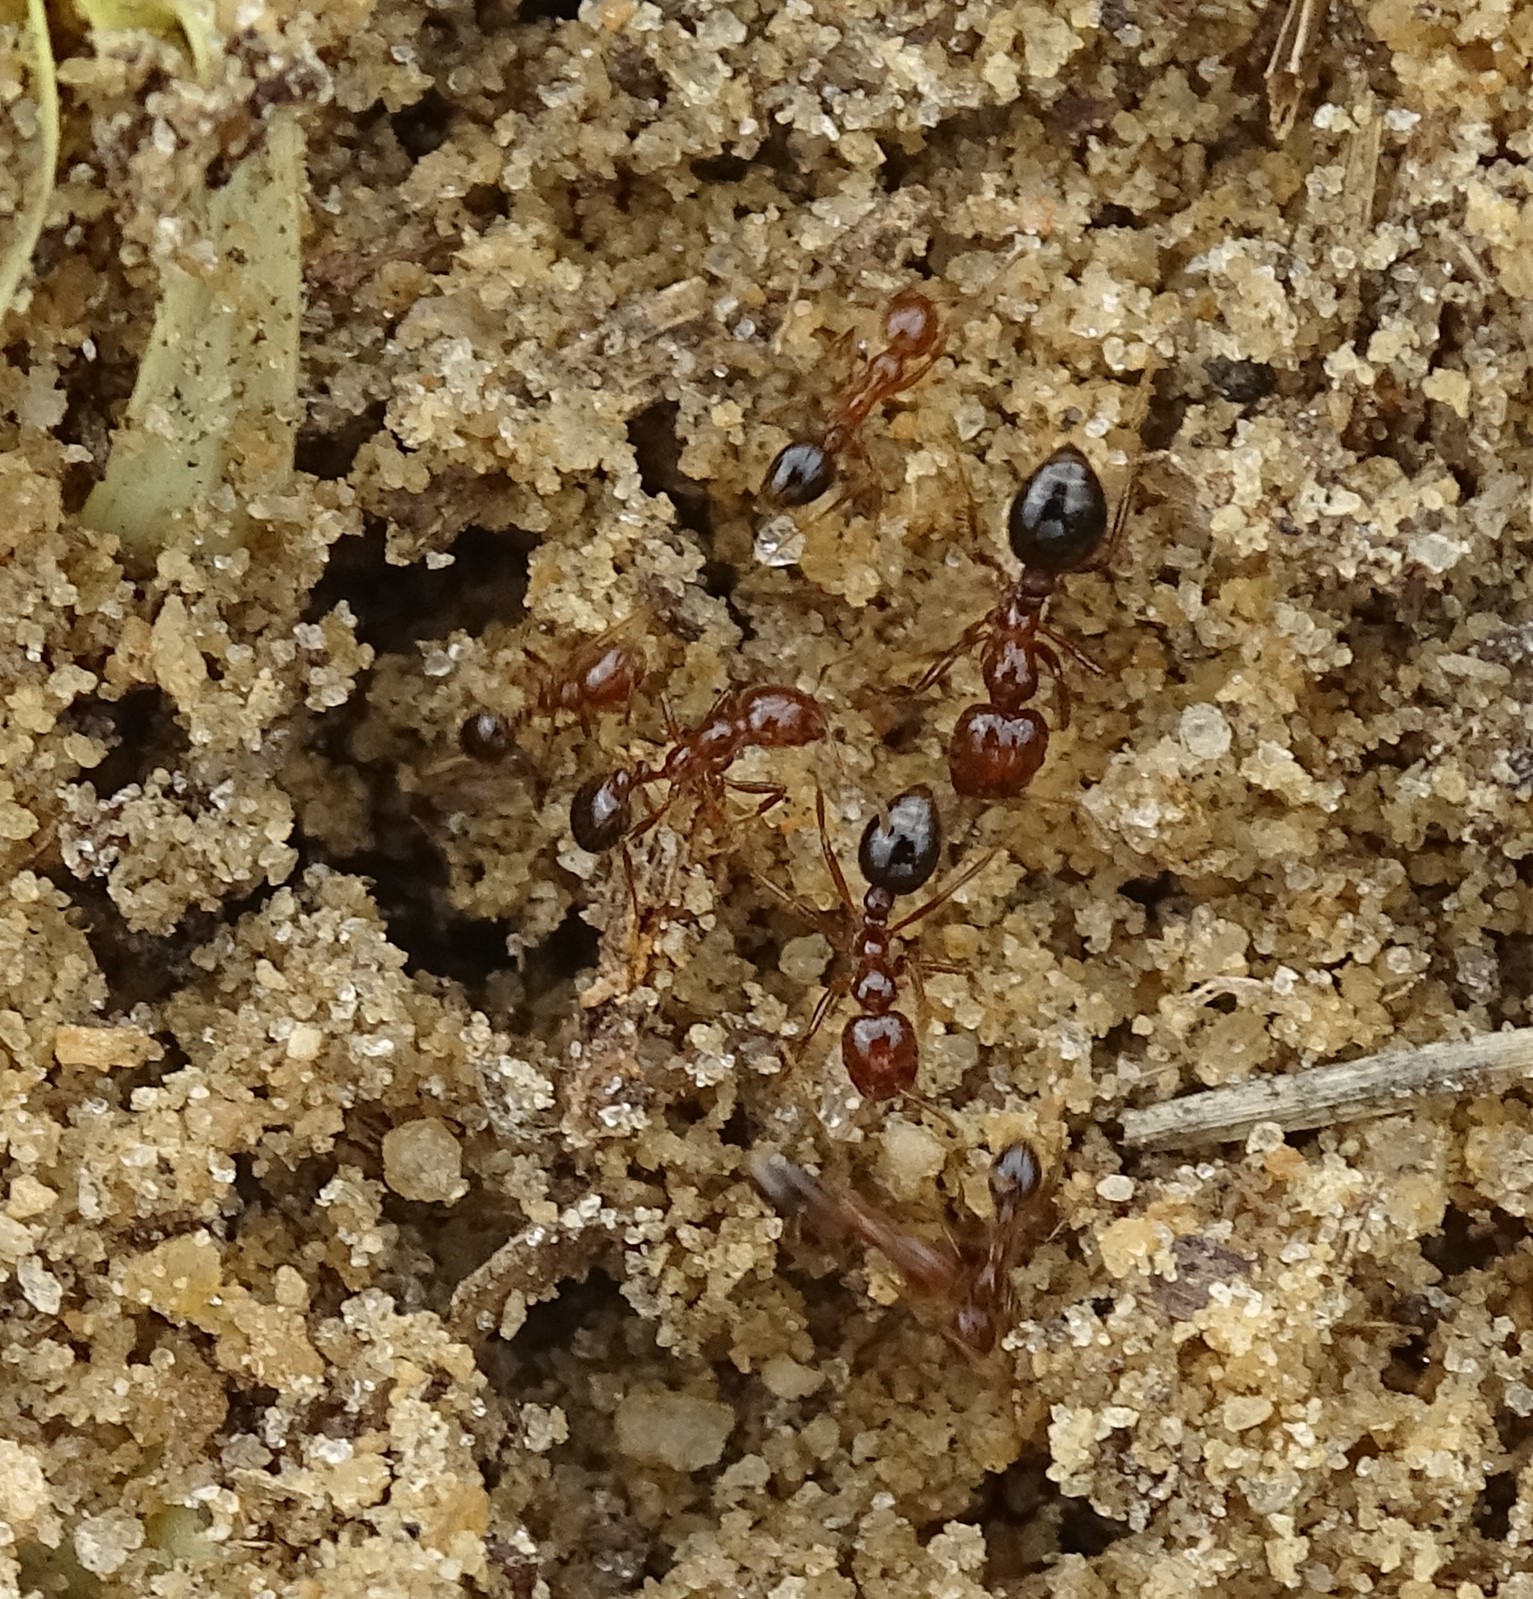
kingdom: Animalia
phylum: Arthropoda
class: Insecta
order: Hymenoptera
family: Formicidae
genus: Solenopsis
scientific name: Solenopsis invicta
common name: Red imported fire ant
